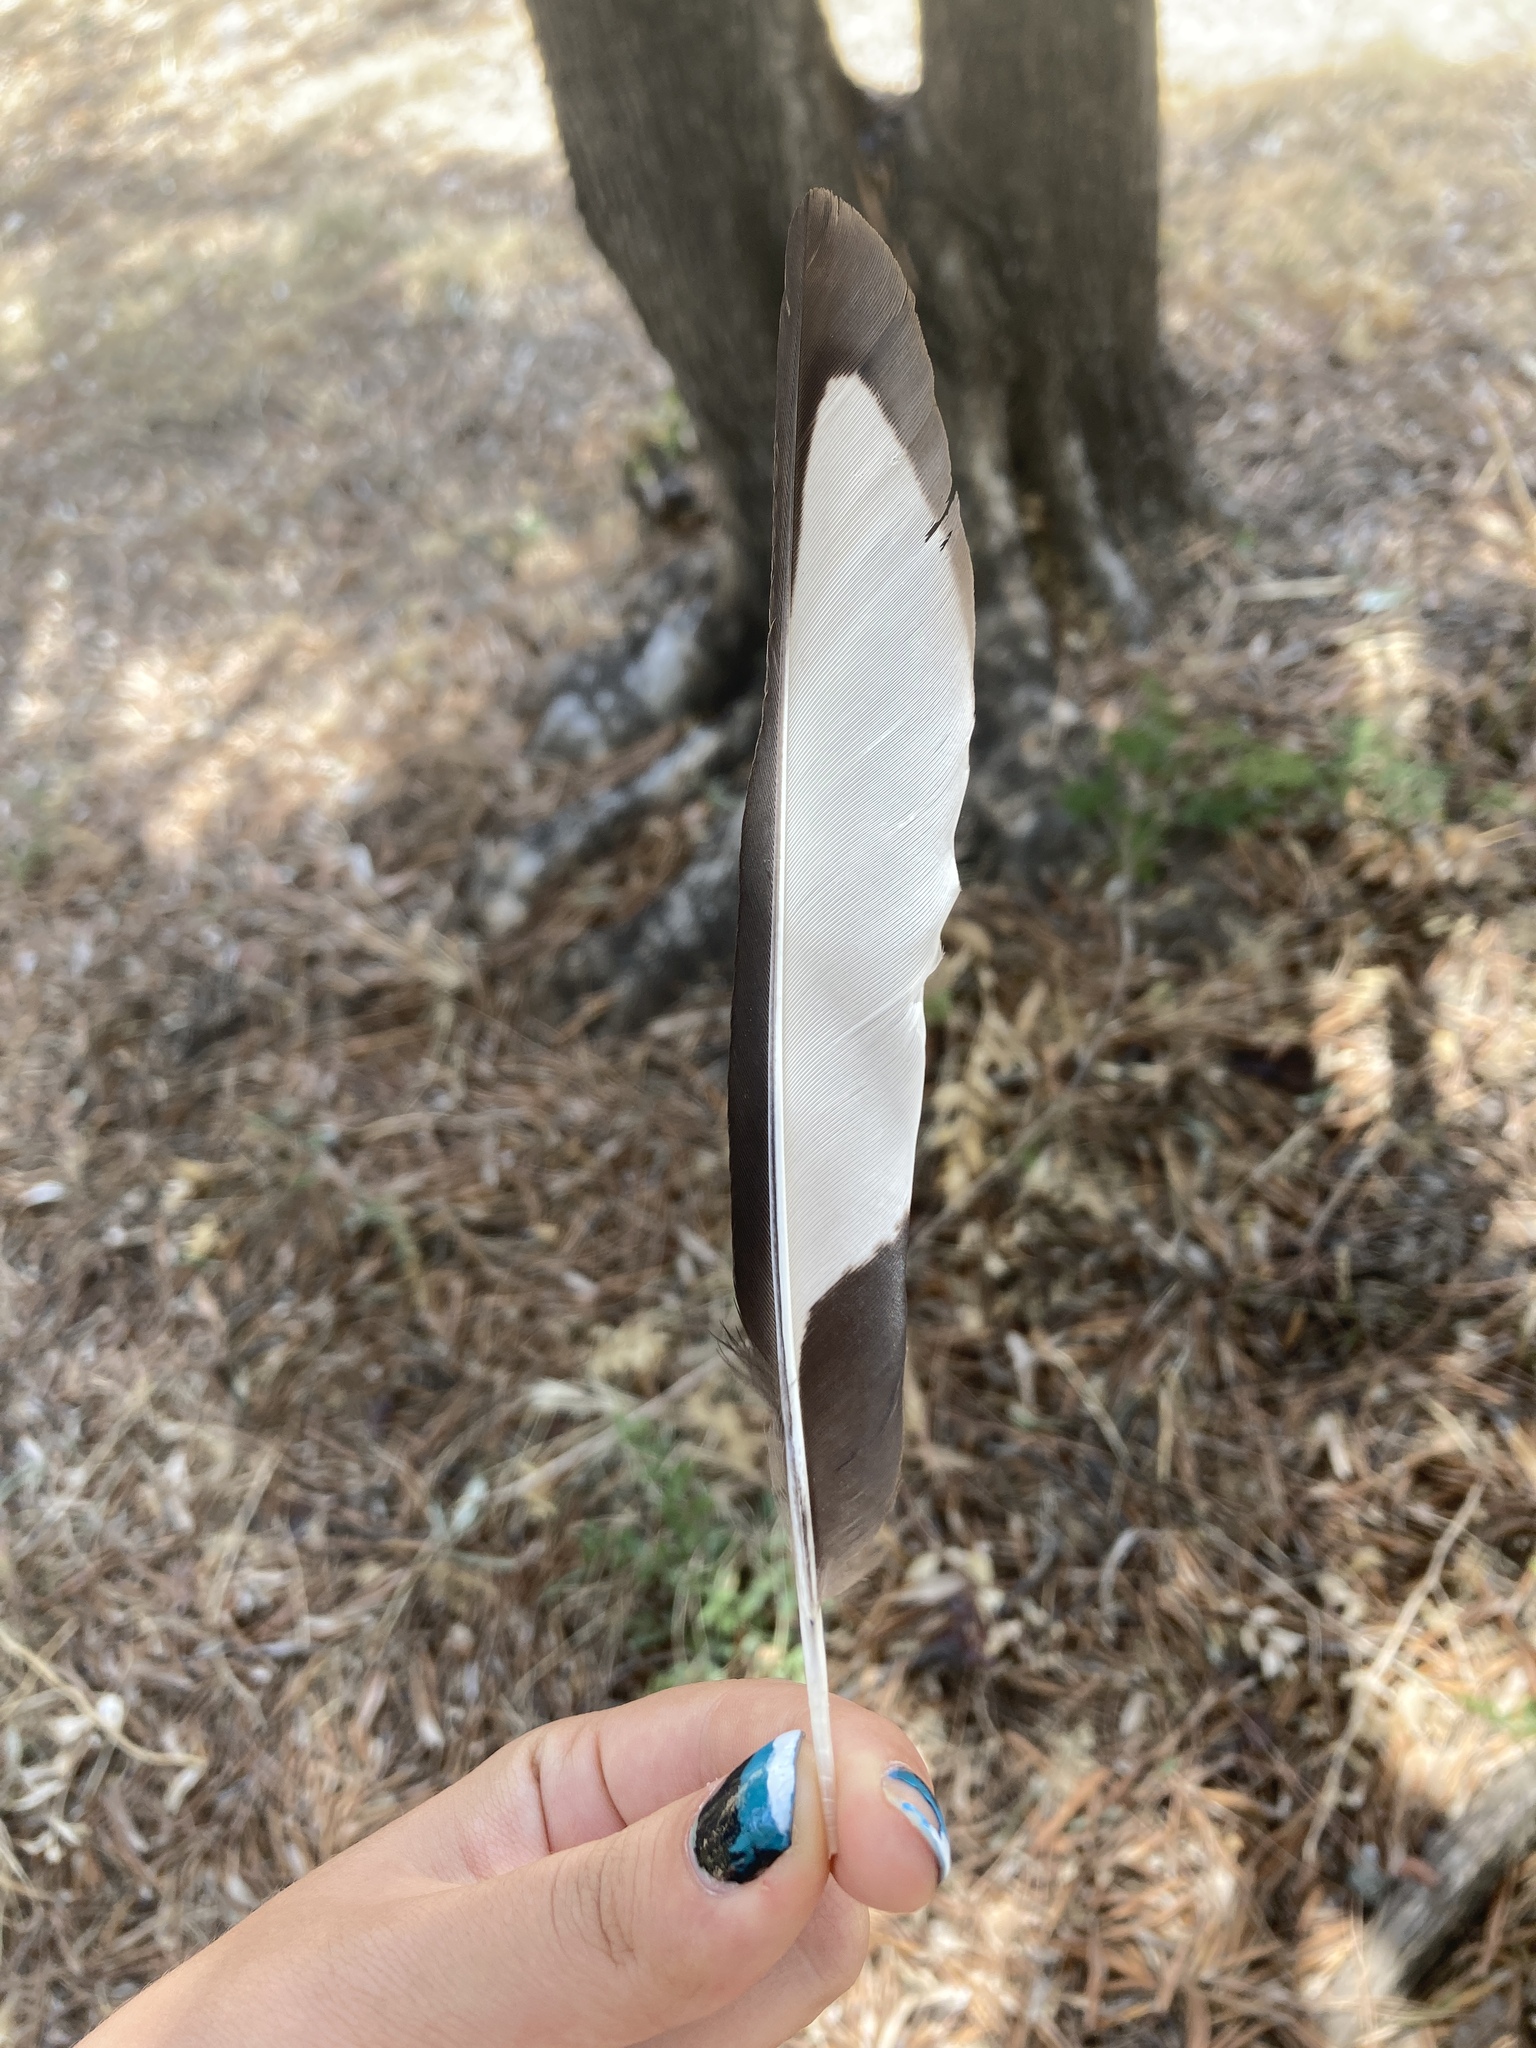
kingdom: Animalia
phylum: Chordata
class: Aves
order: Passeriformes
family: Corvidae
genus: Pica
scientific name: Pica pica
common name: Eurasian magpie
